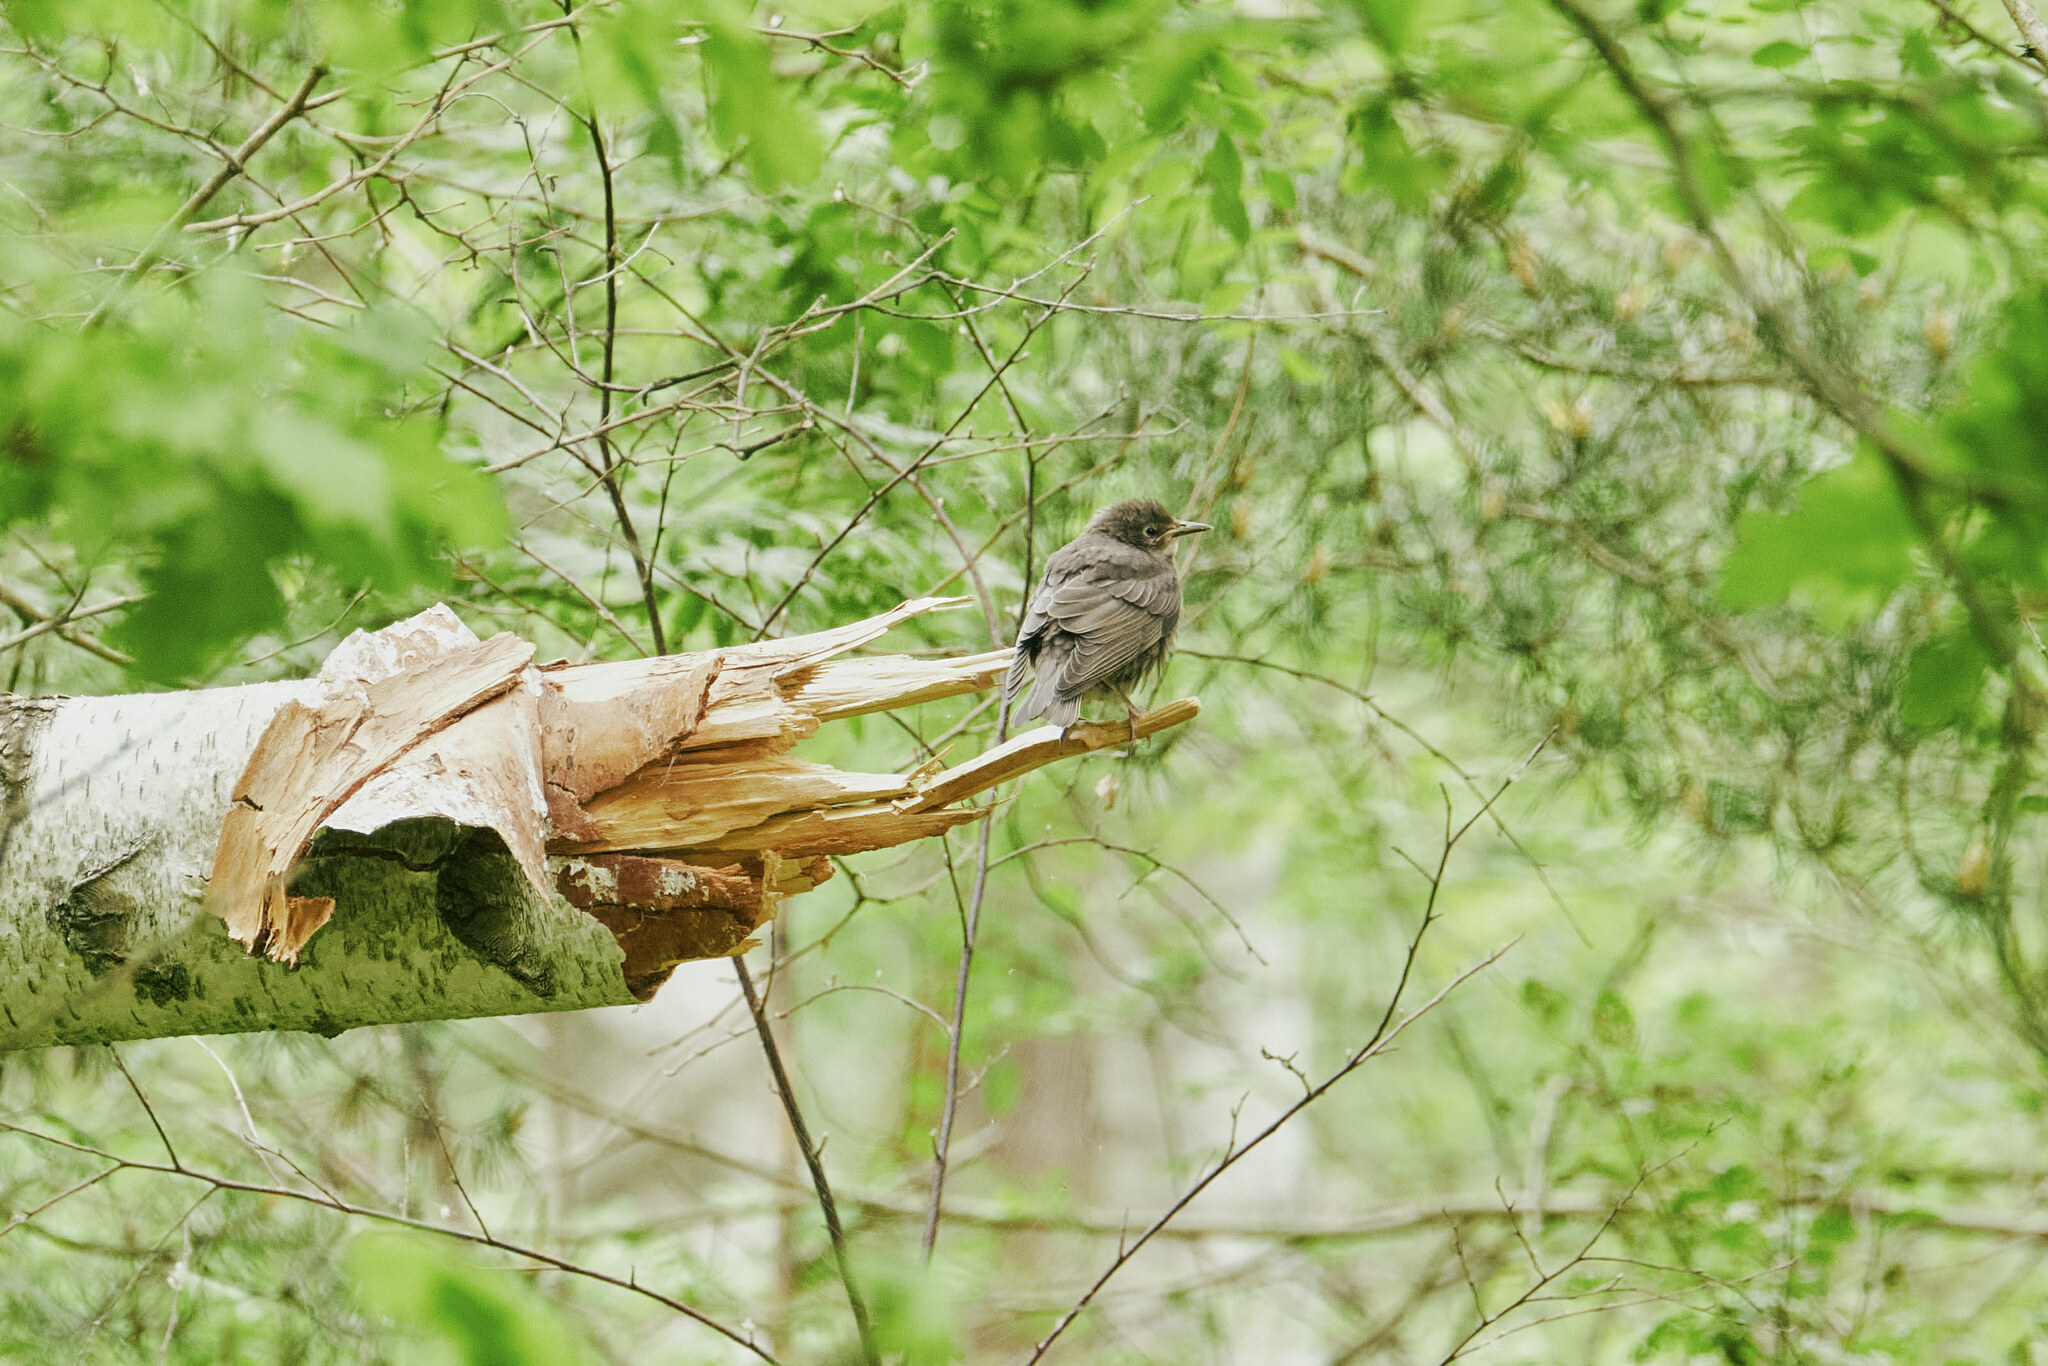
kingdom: Animalia
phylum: Chordata
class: Aves
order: Passeriformes
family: Sturnidae
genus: Sturnus
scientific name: Sturnus vulgaris
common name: Common starling
